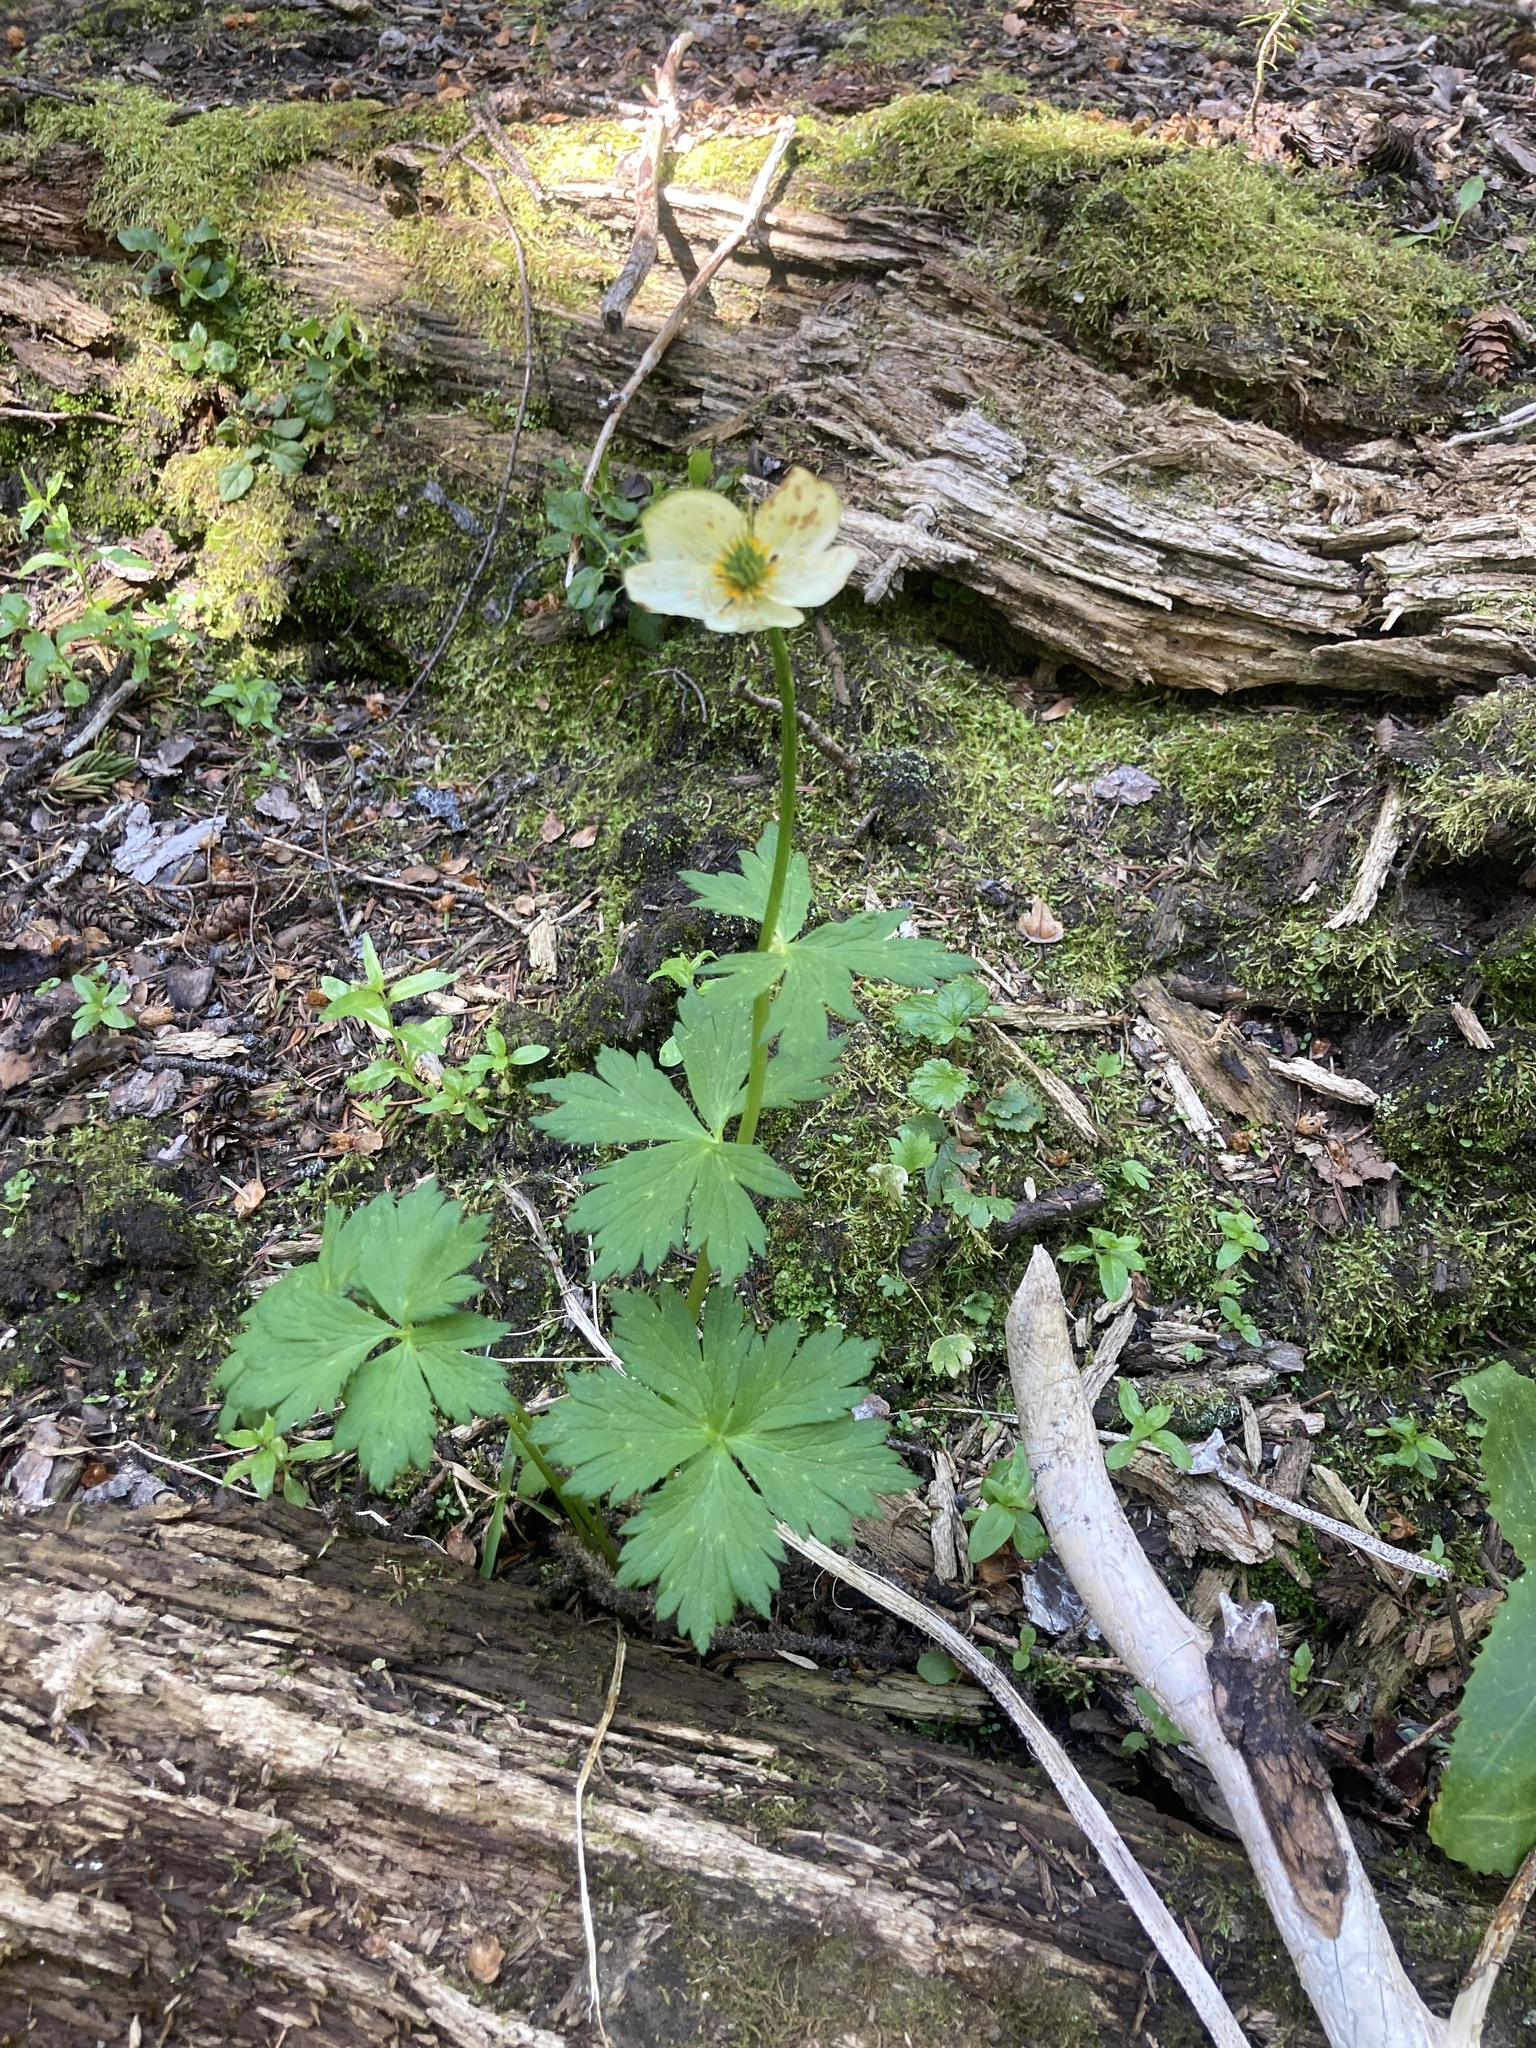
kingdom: Plantae
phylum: Tracheophyta
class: Magnoliopsida
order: Ranunculales
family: Ranunculaceae
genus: Trollius
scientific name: Trollius laxus
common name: American globeflower
